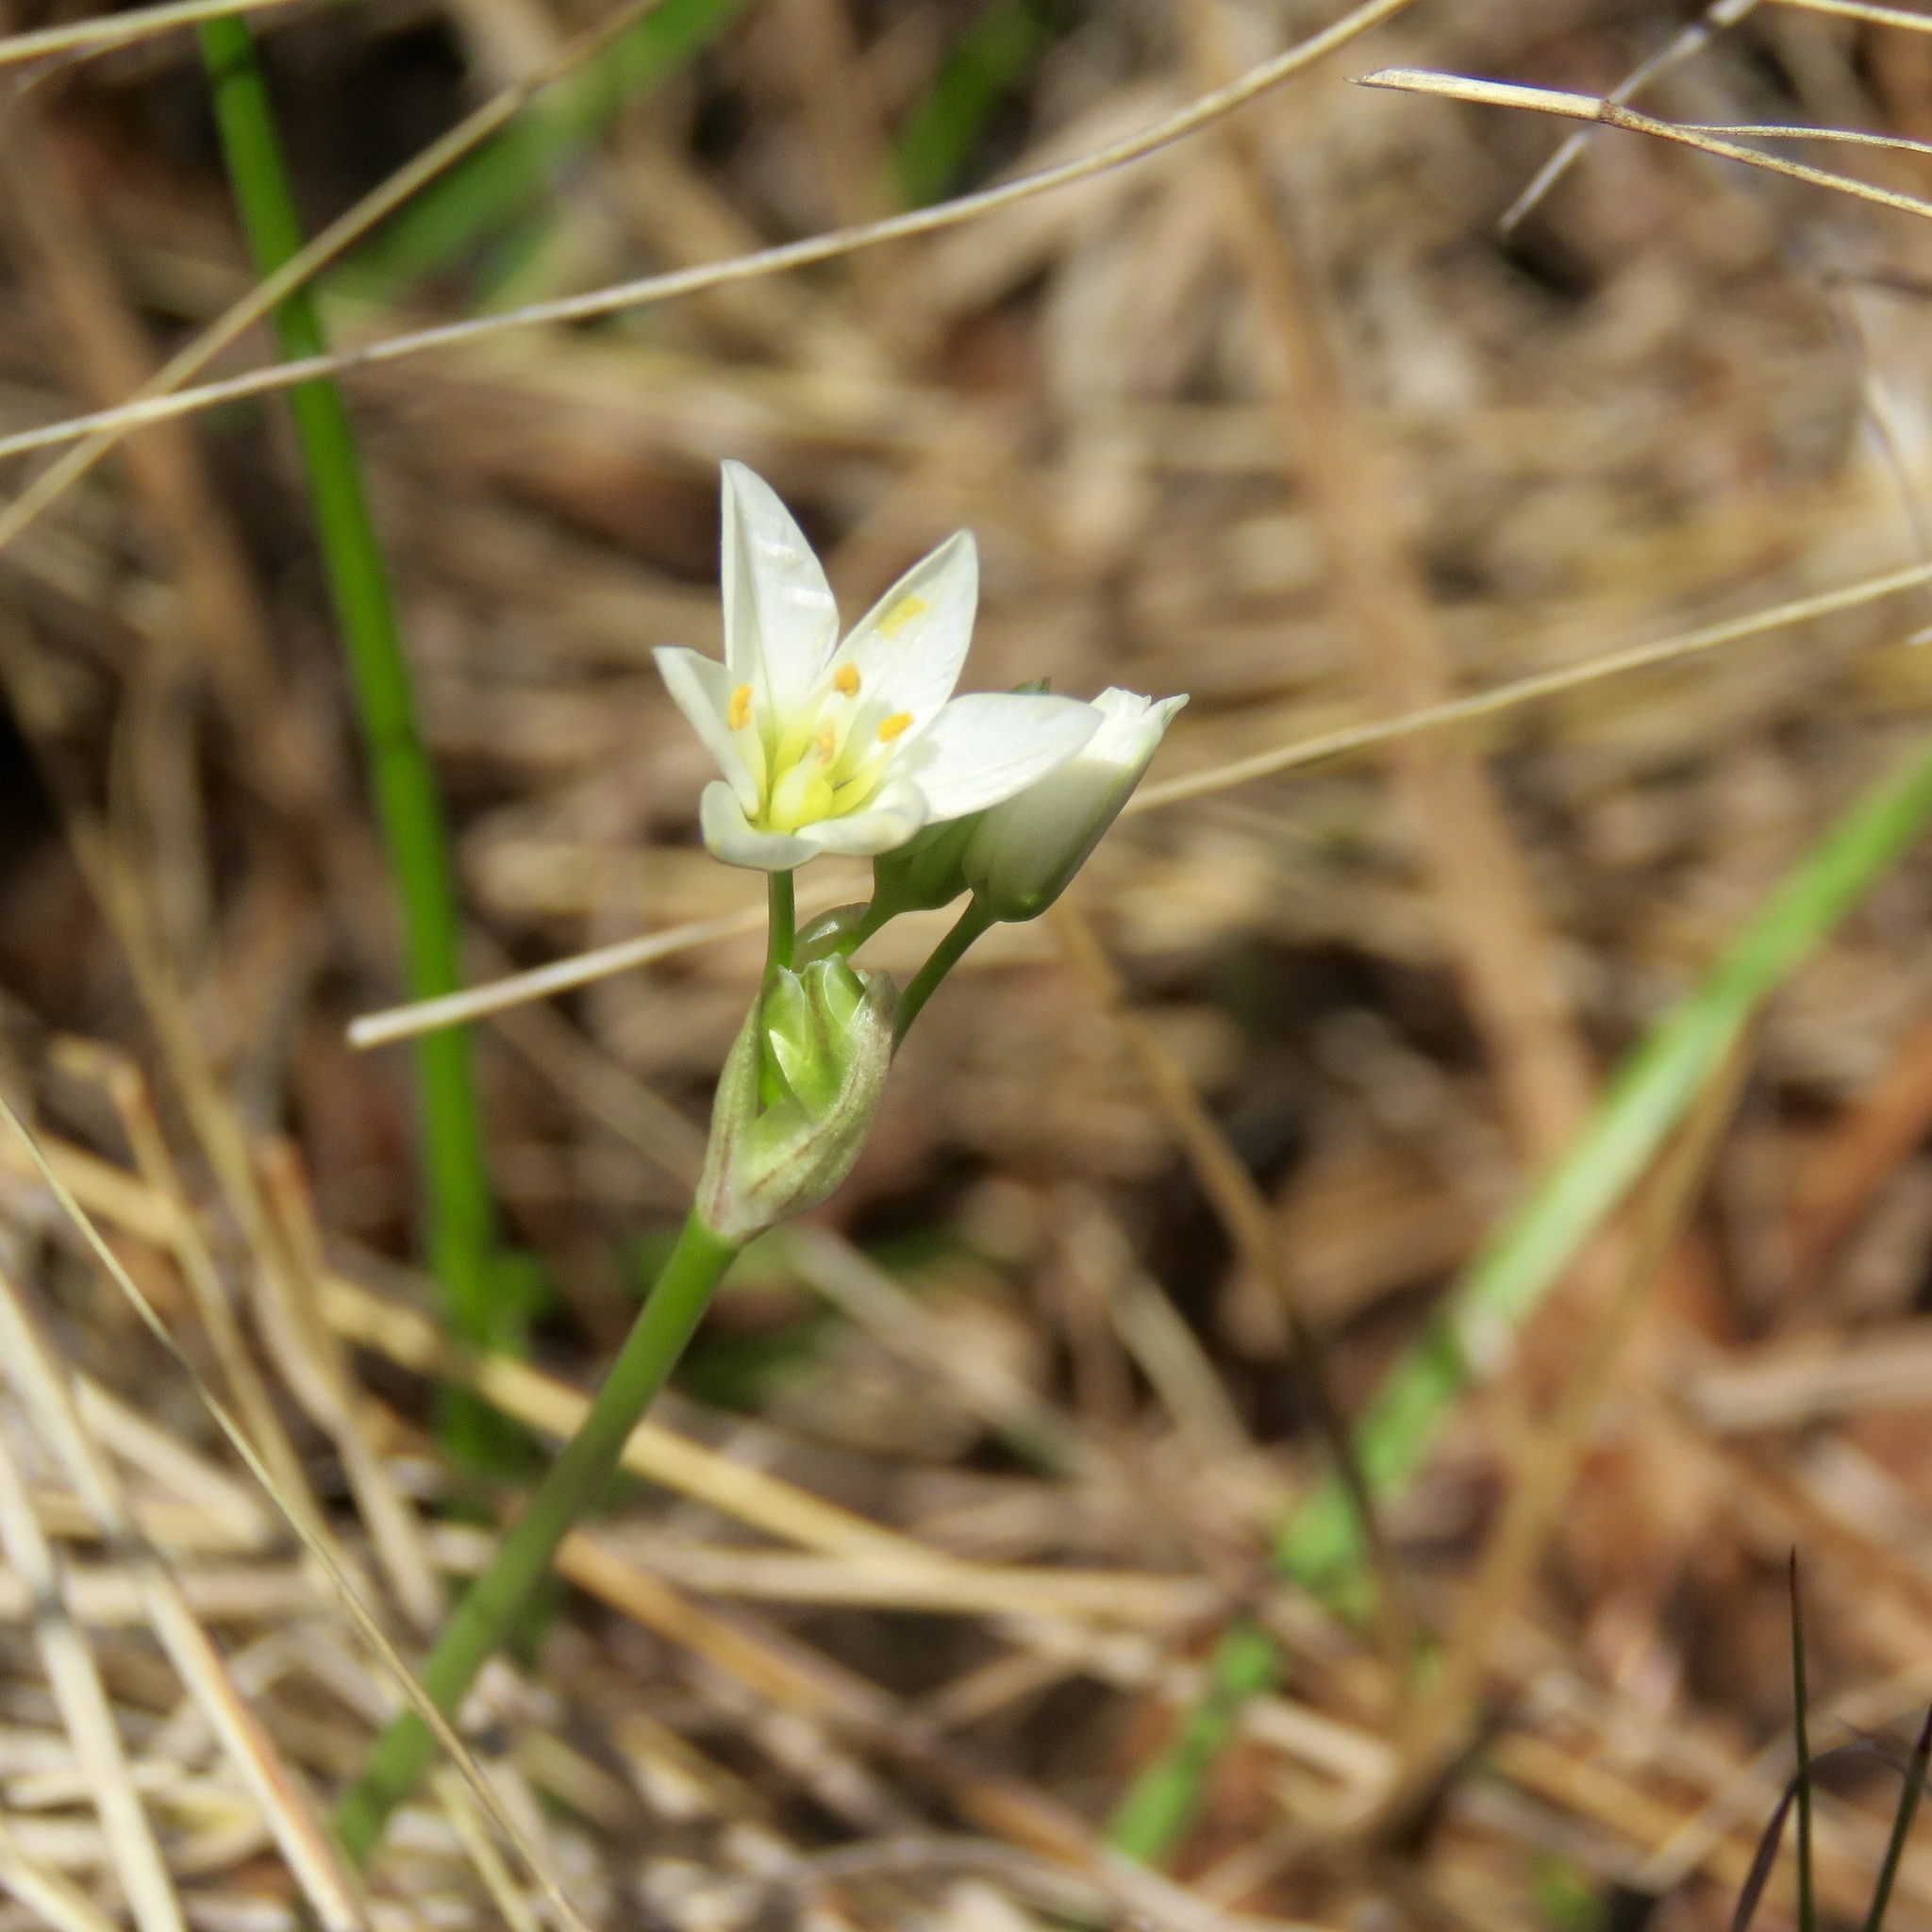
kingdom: Plantae
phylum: Tracheophyta
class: Liliopsida
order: Asparagales
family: Amaryllidaceae
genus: Nothoscordum
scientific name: Nothoscordum bivalve
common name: Crow-poison
